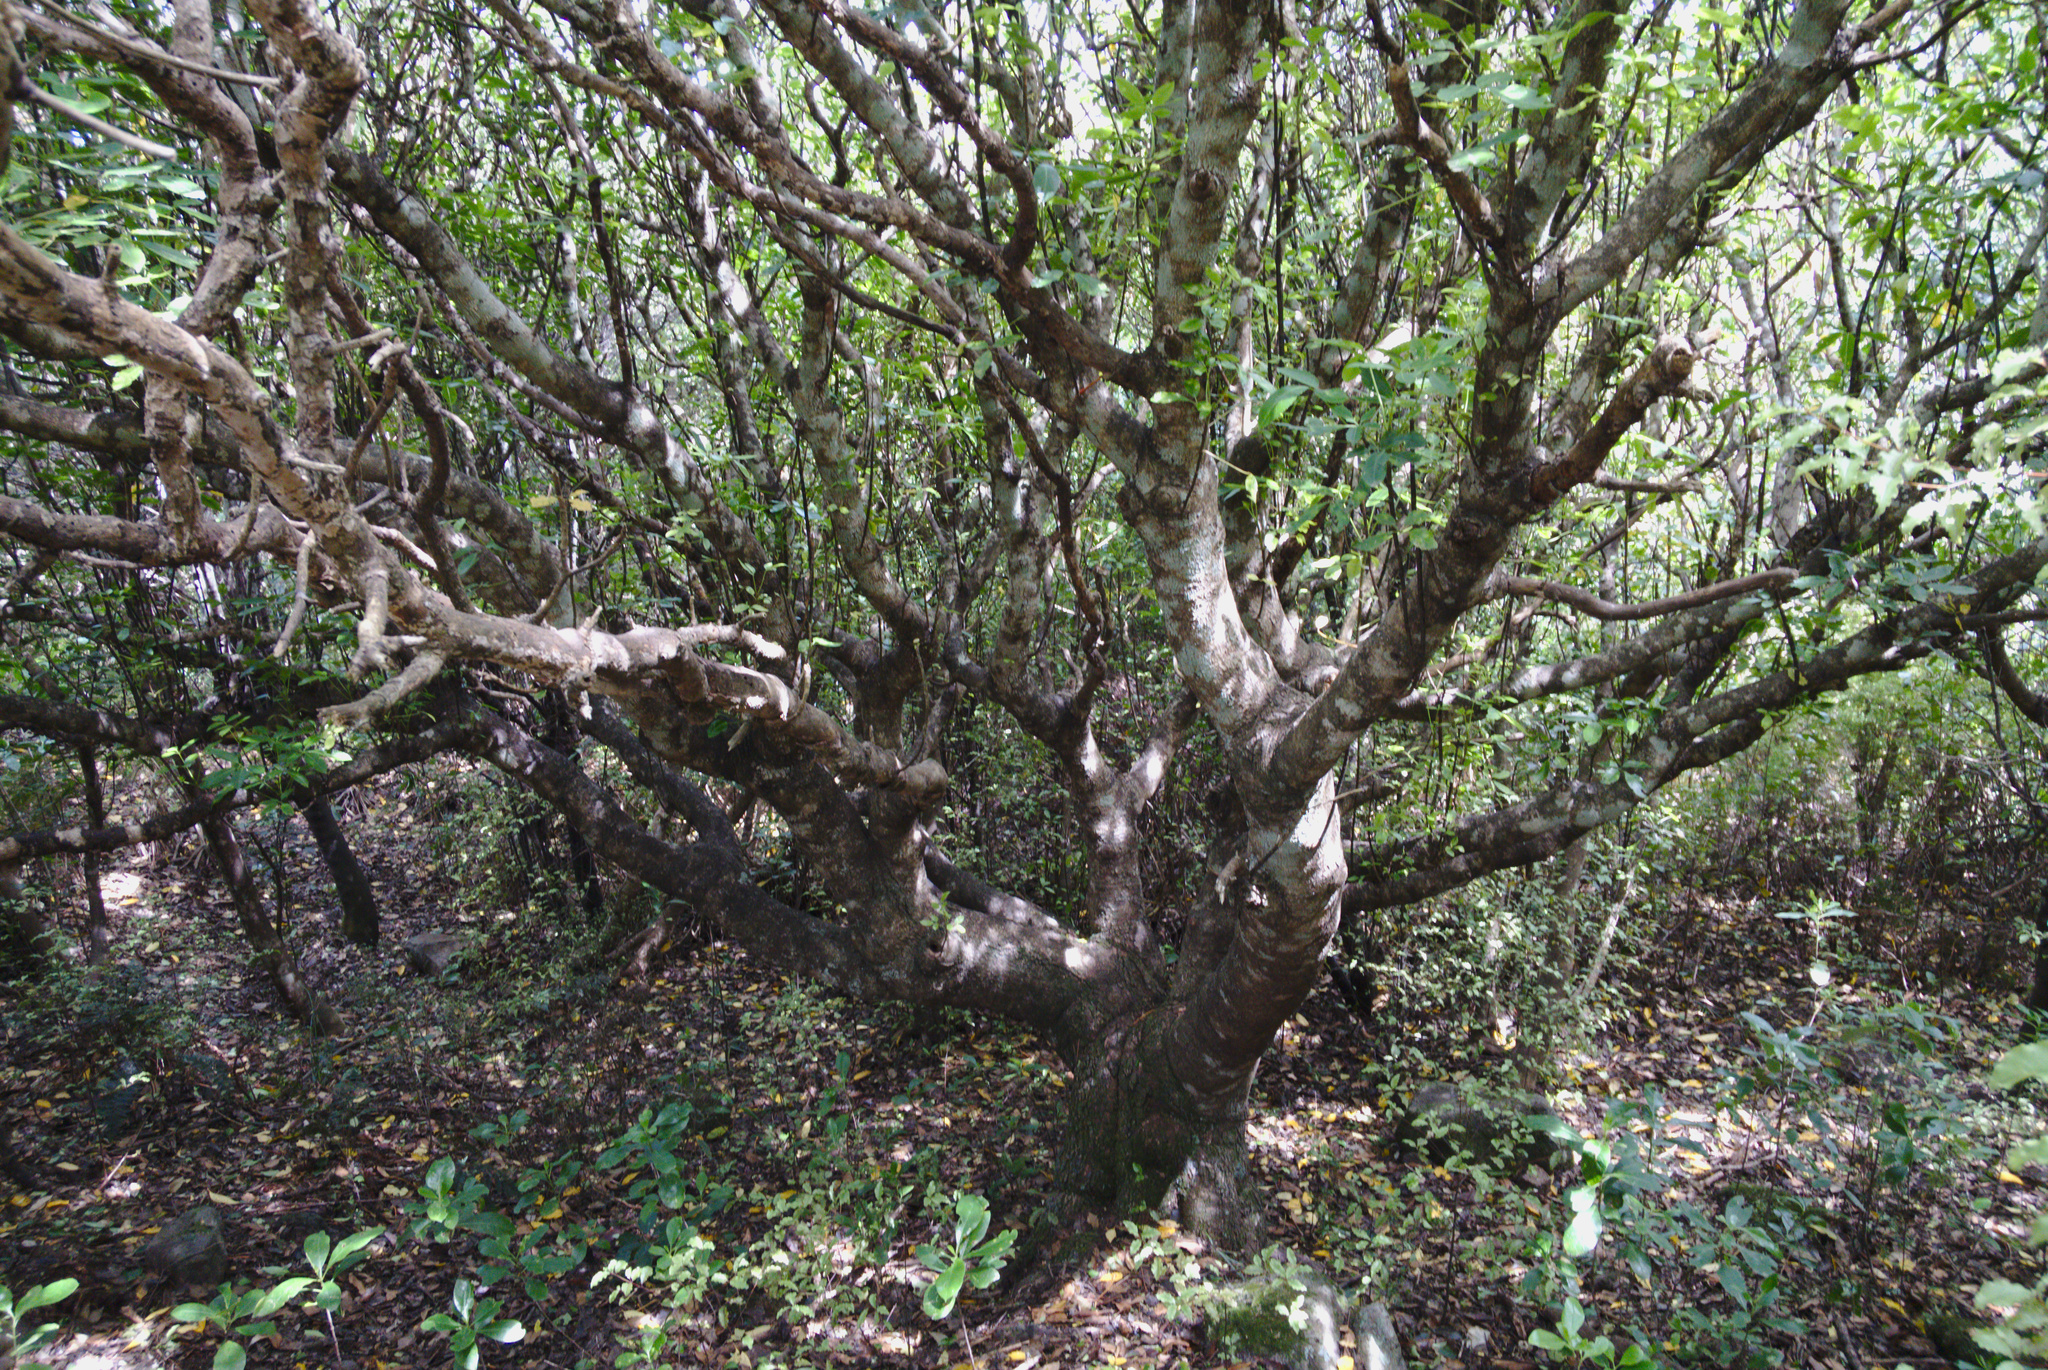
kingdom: Plantae
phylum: Tracheophyta
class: Magnoliopsida
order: Apiales
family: Araliaceae
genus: Neopanax
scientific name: Neopanax arboreus
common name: Five-fingers
